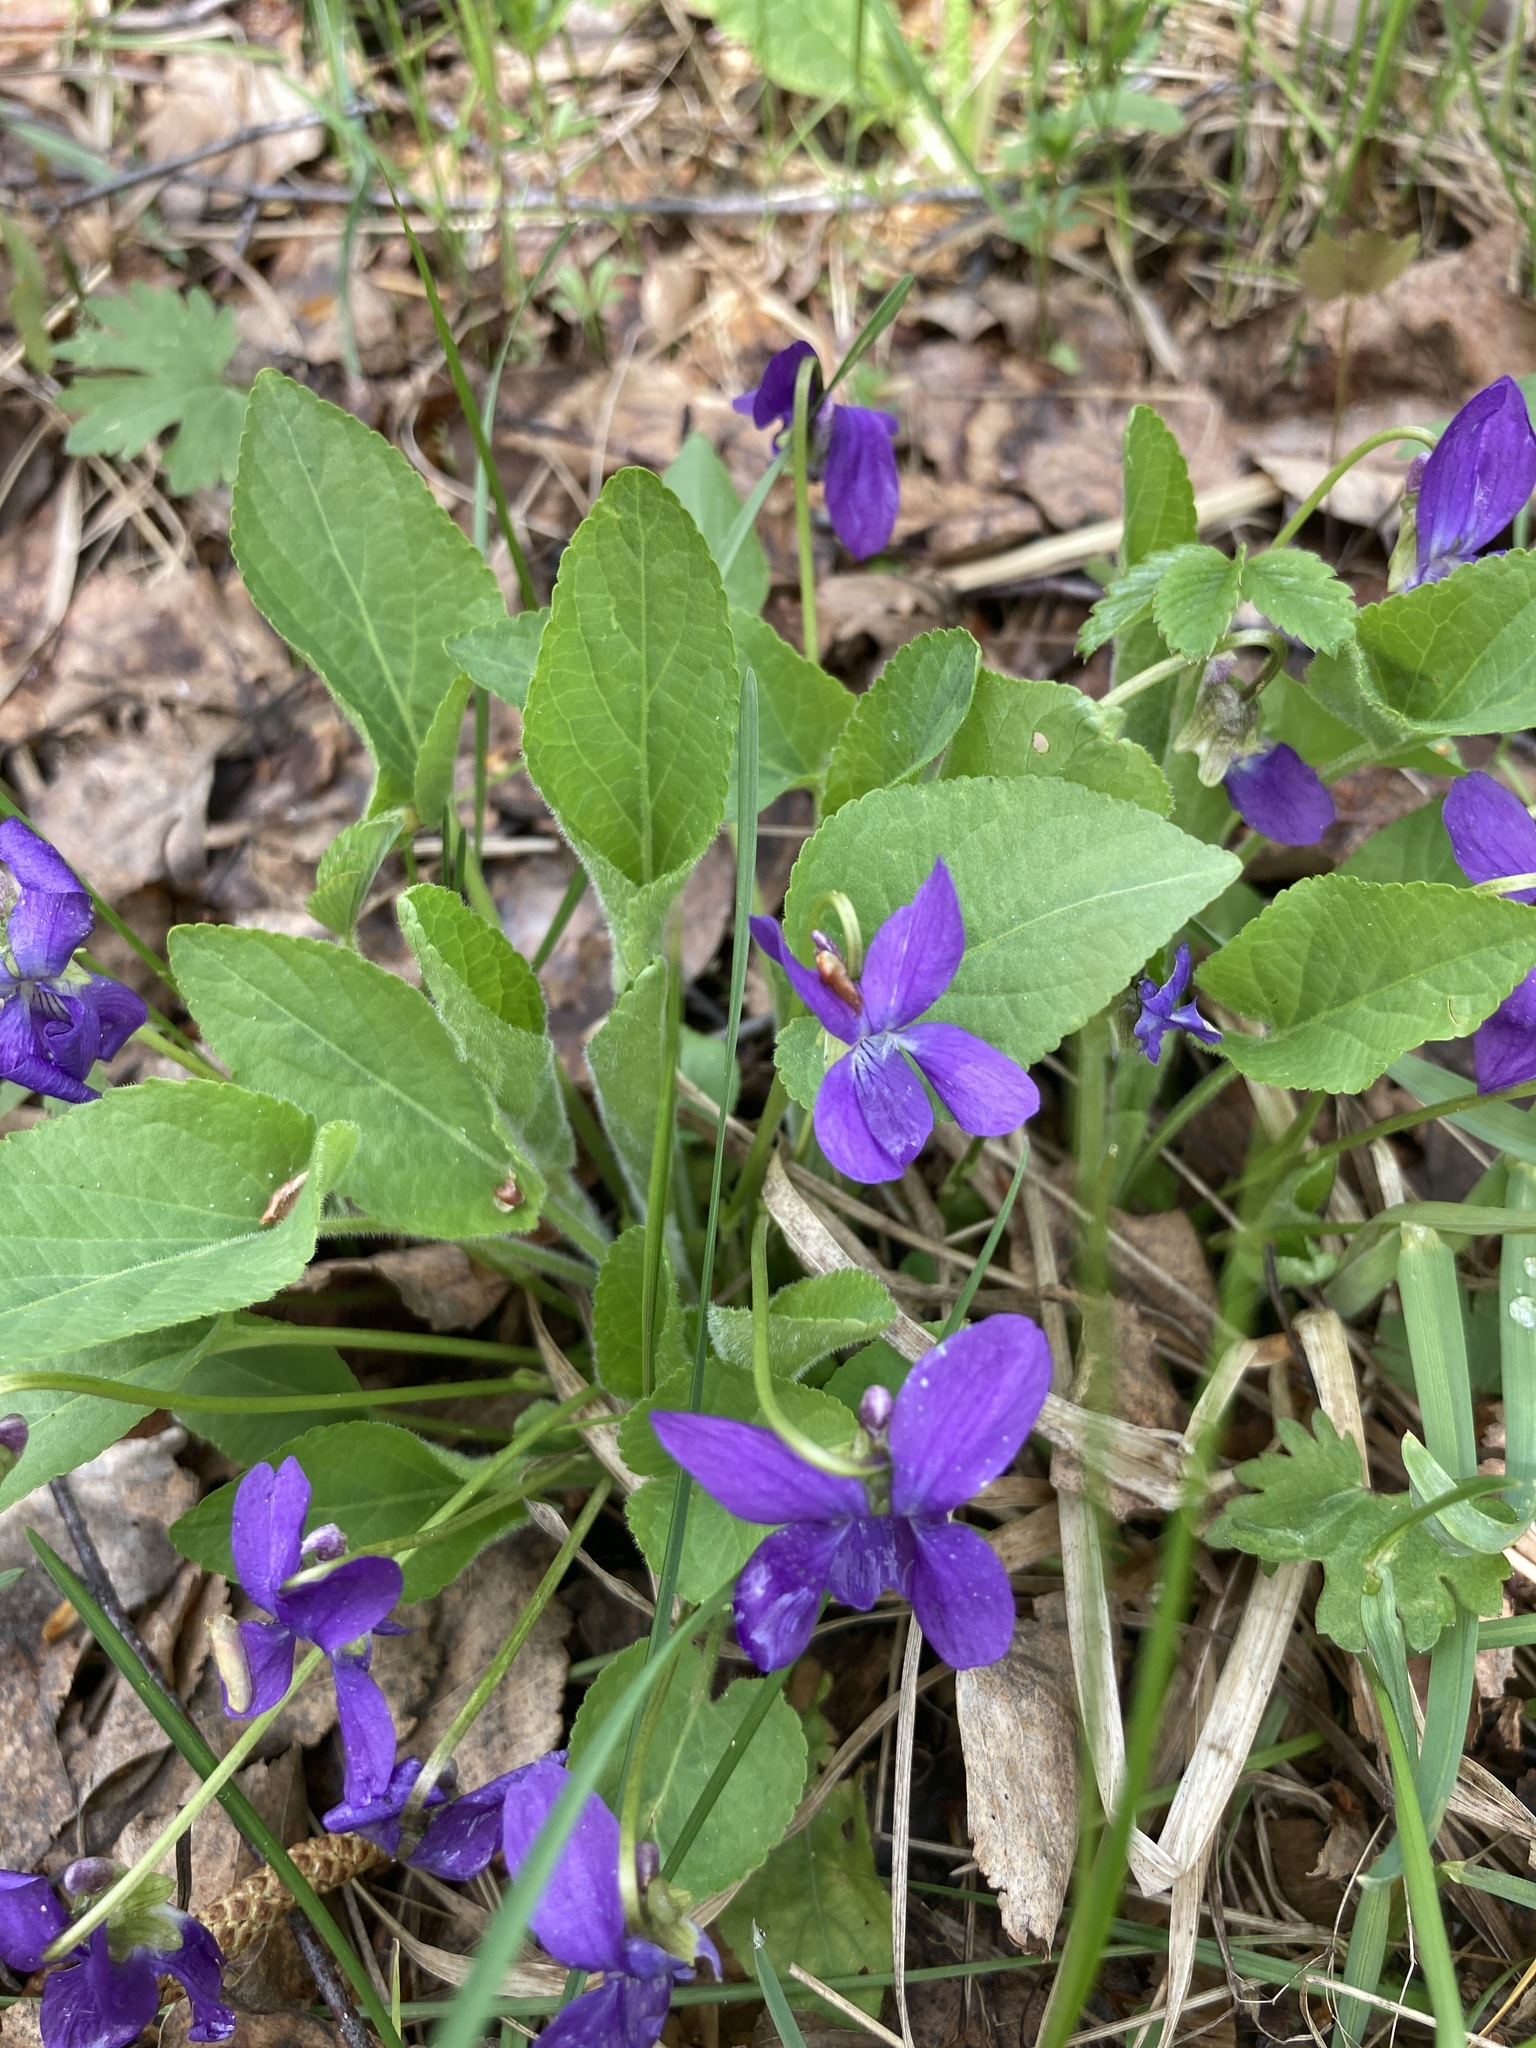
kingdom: Plantae
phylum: Tracheophyta
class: Magnoliopsida
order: Malpighiales
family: Violaceae
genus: Viola
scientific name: Viola hirta
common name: Hairy violet
